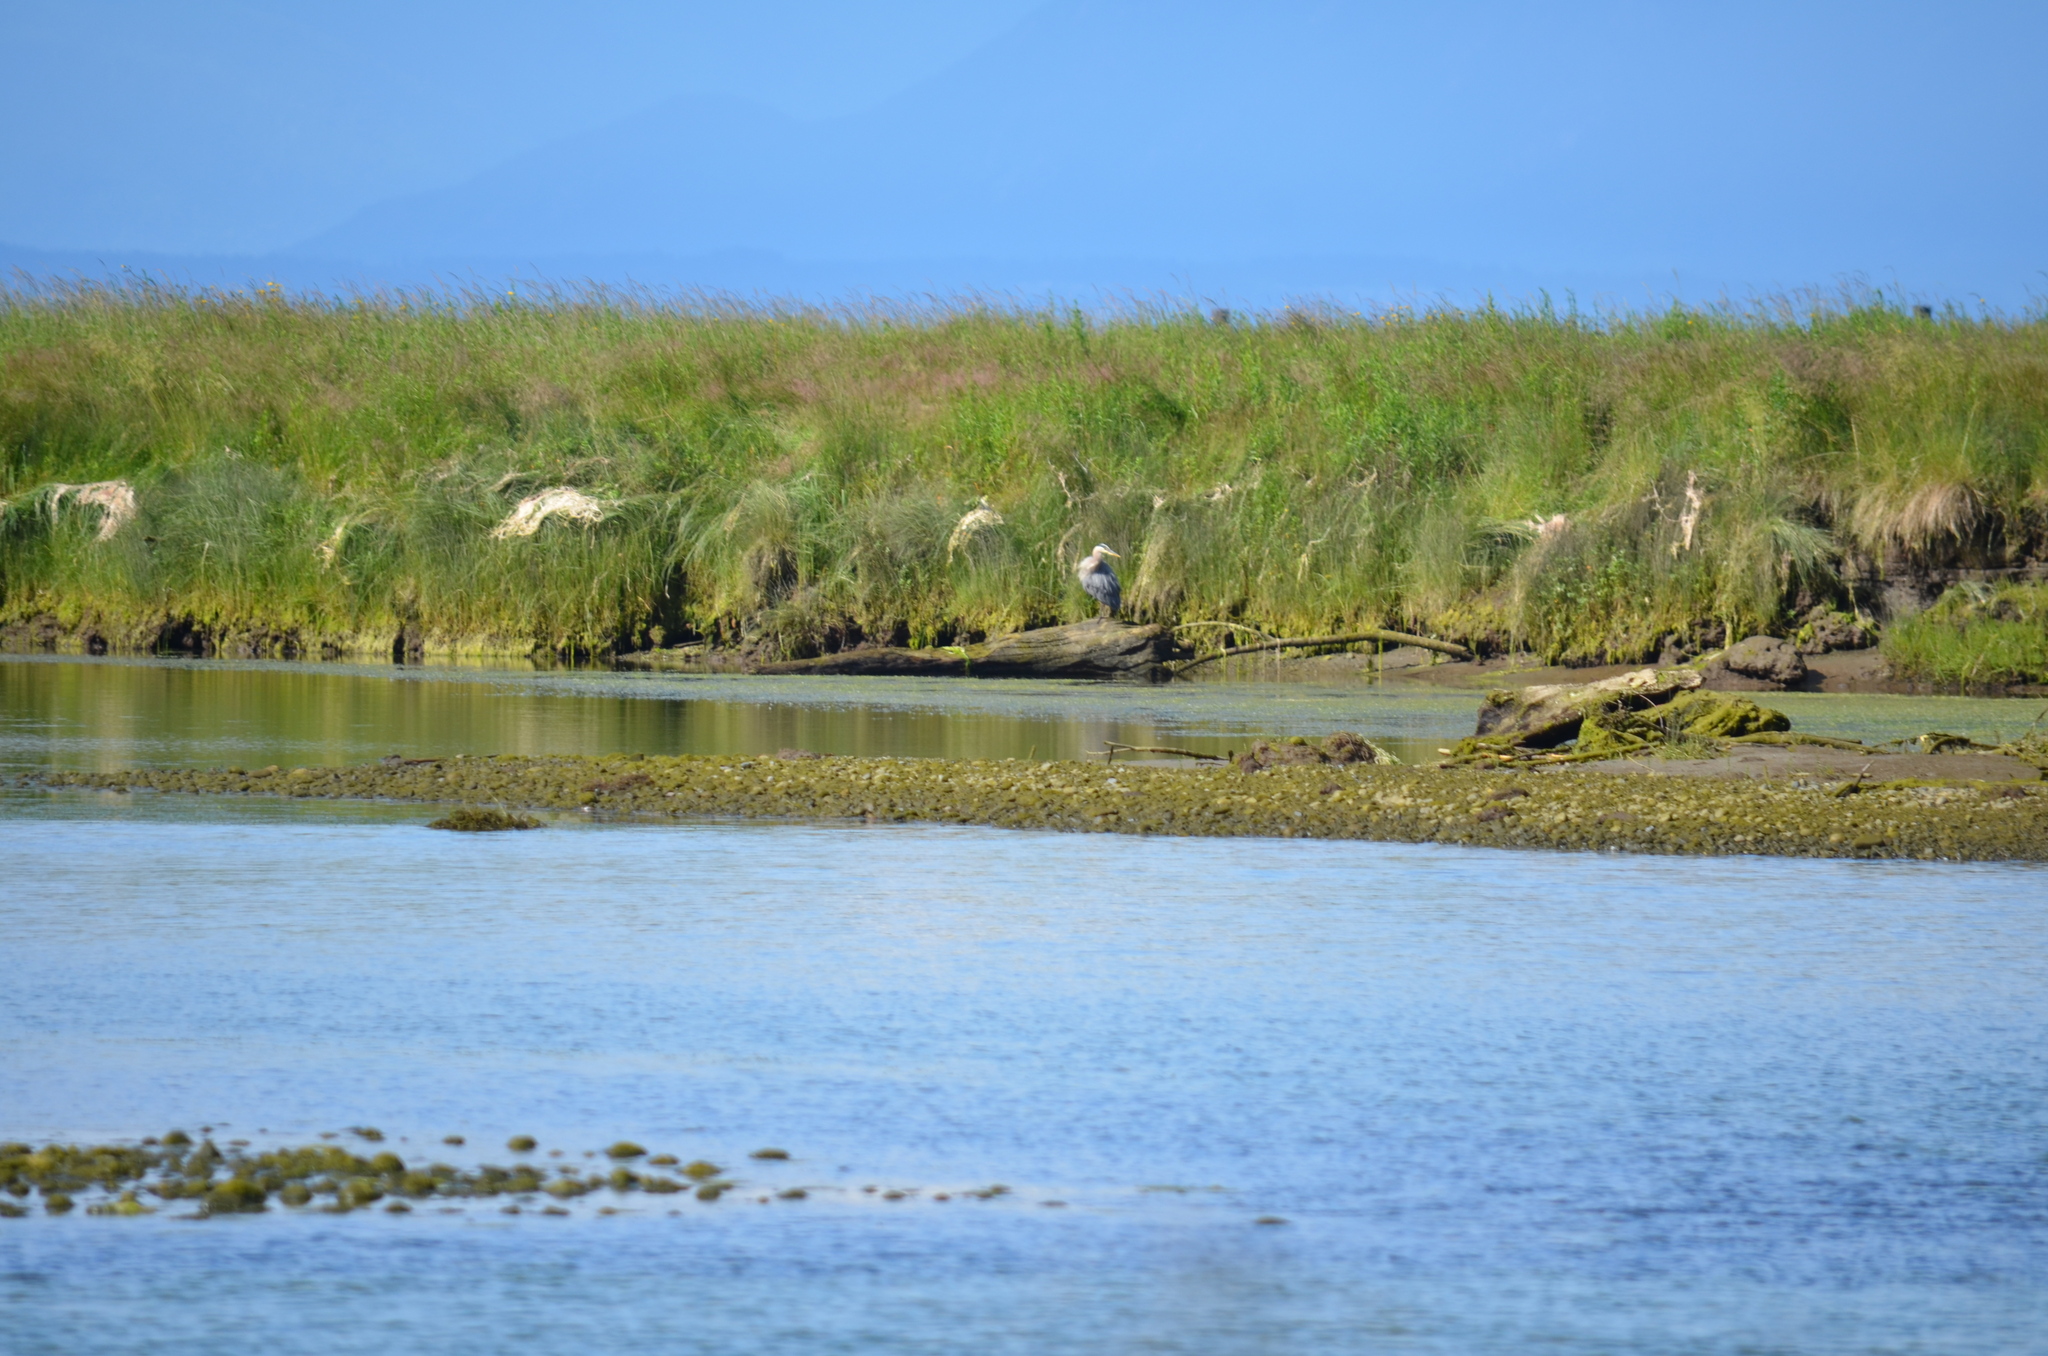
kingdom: Animalia
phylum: Chordata
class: Aves
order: Pelecaniformes
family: Ardeidae
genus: Ardea
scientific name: Ardea herodias
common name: Great blue heron
